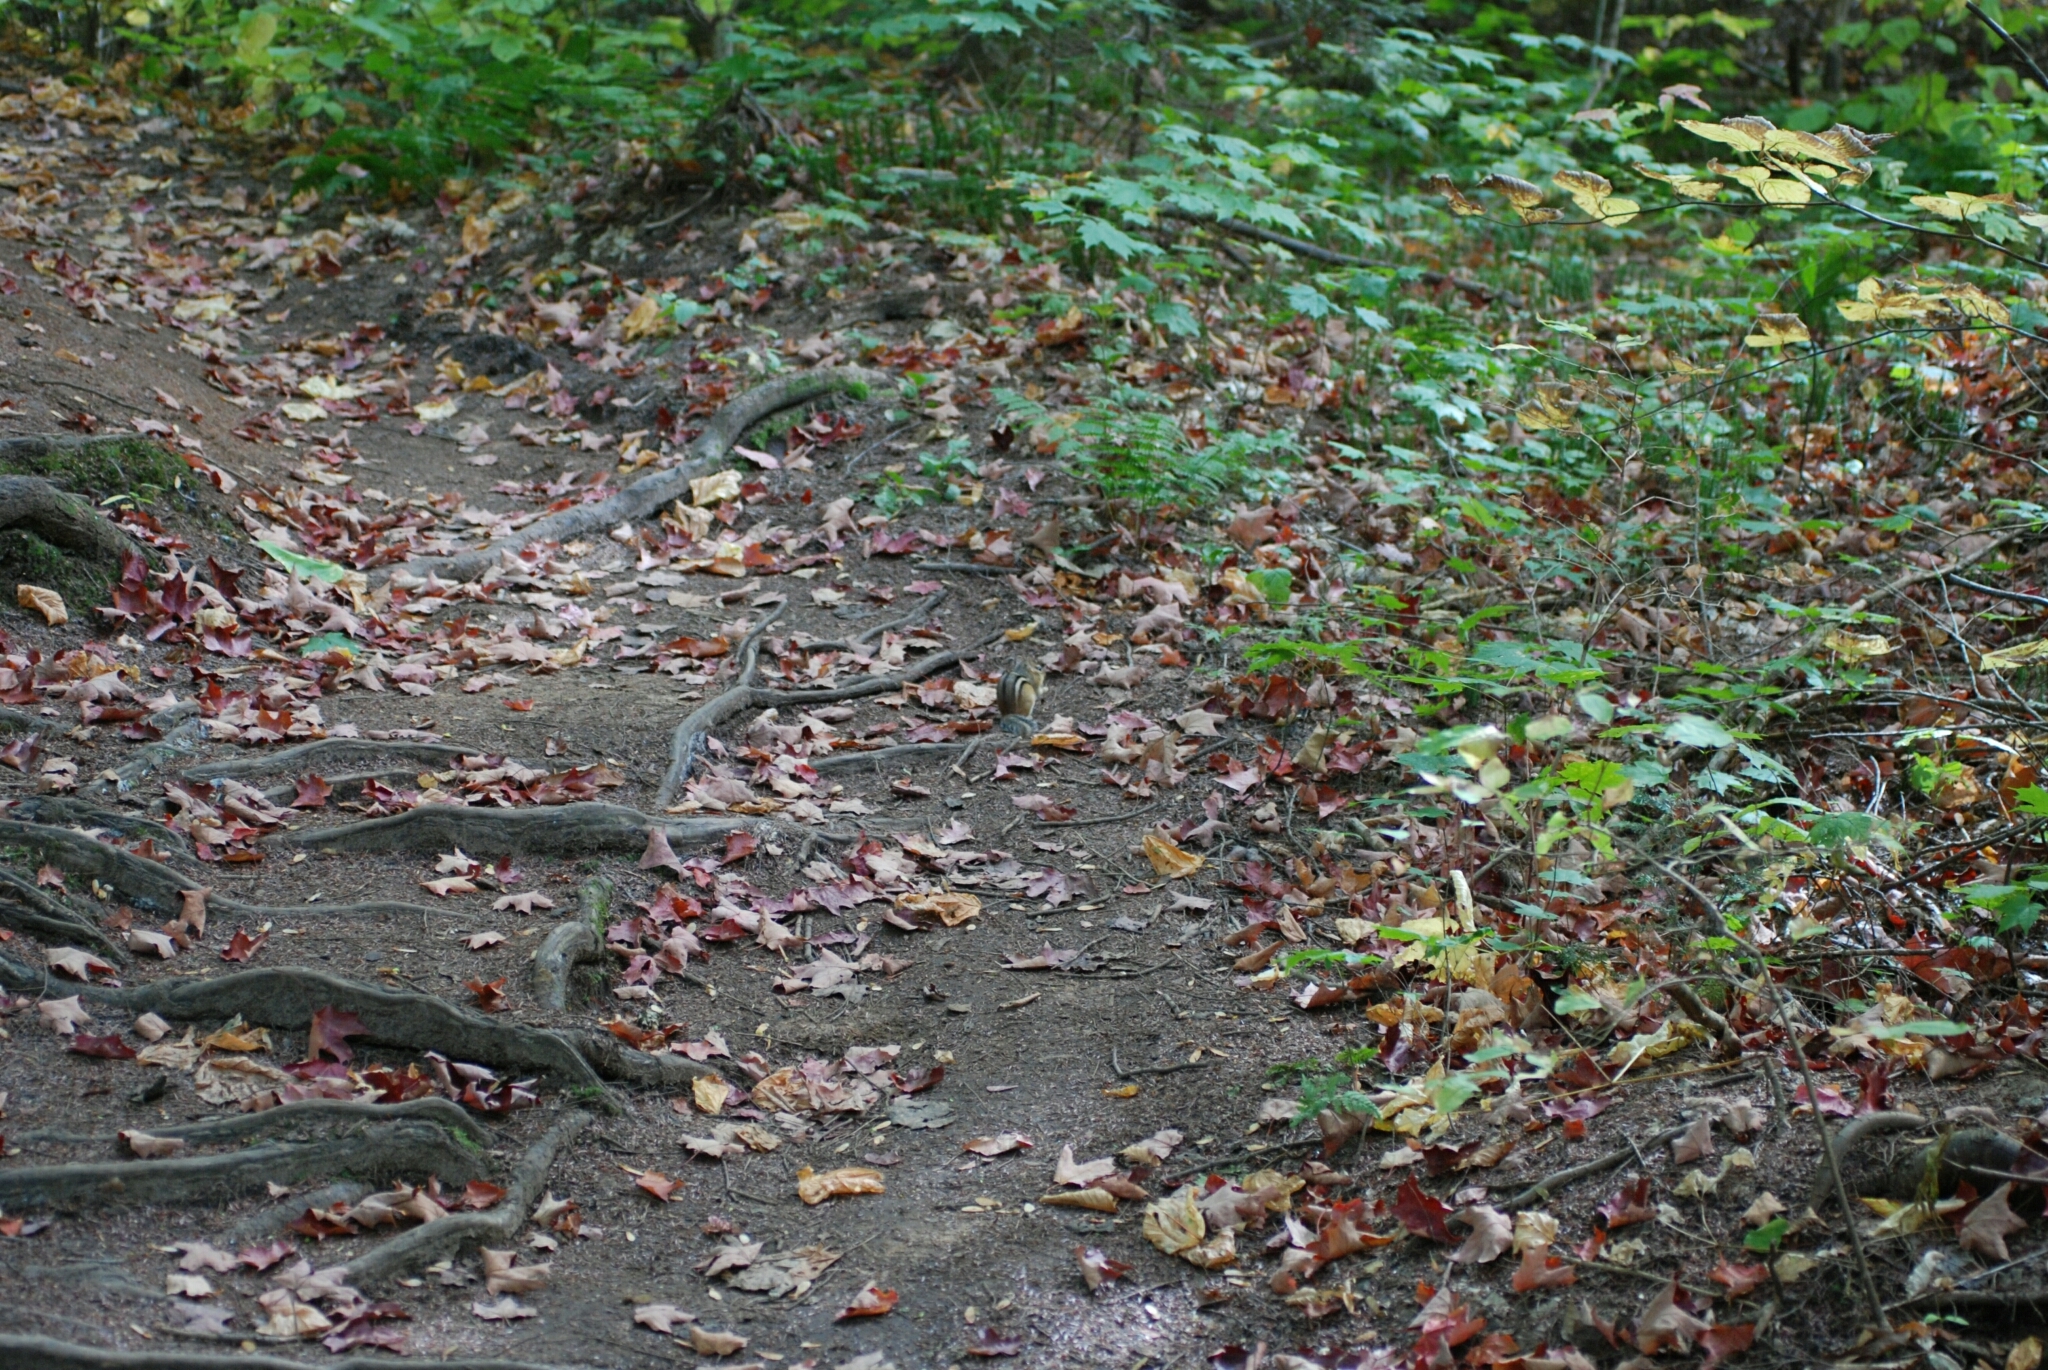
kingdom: Animalia
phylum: Chordata
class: Mammalia
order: Rodentia
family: Sciuridae
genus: Tamias
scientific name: Tamias striatus
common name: Eastern chipmunk
